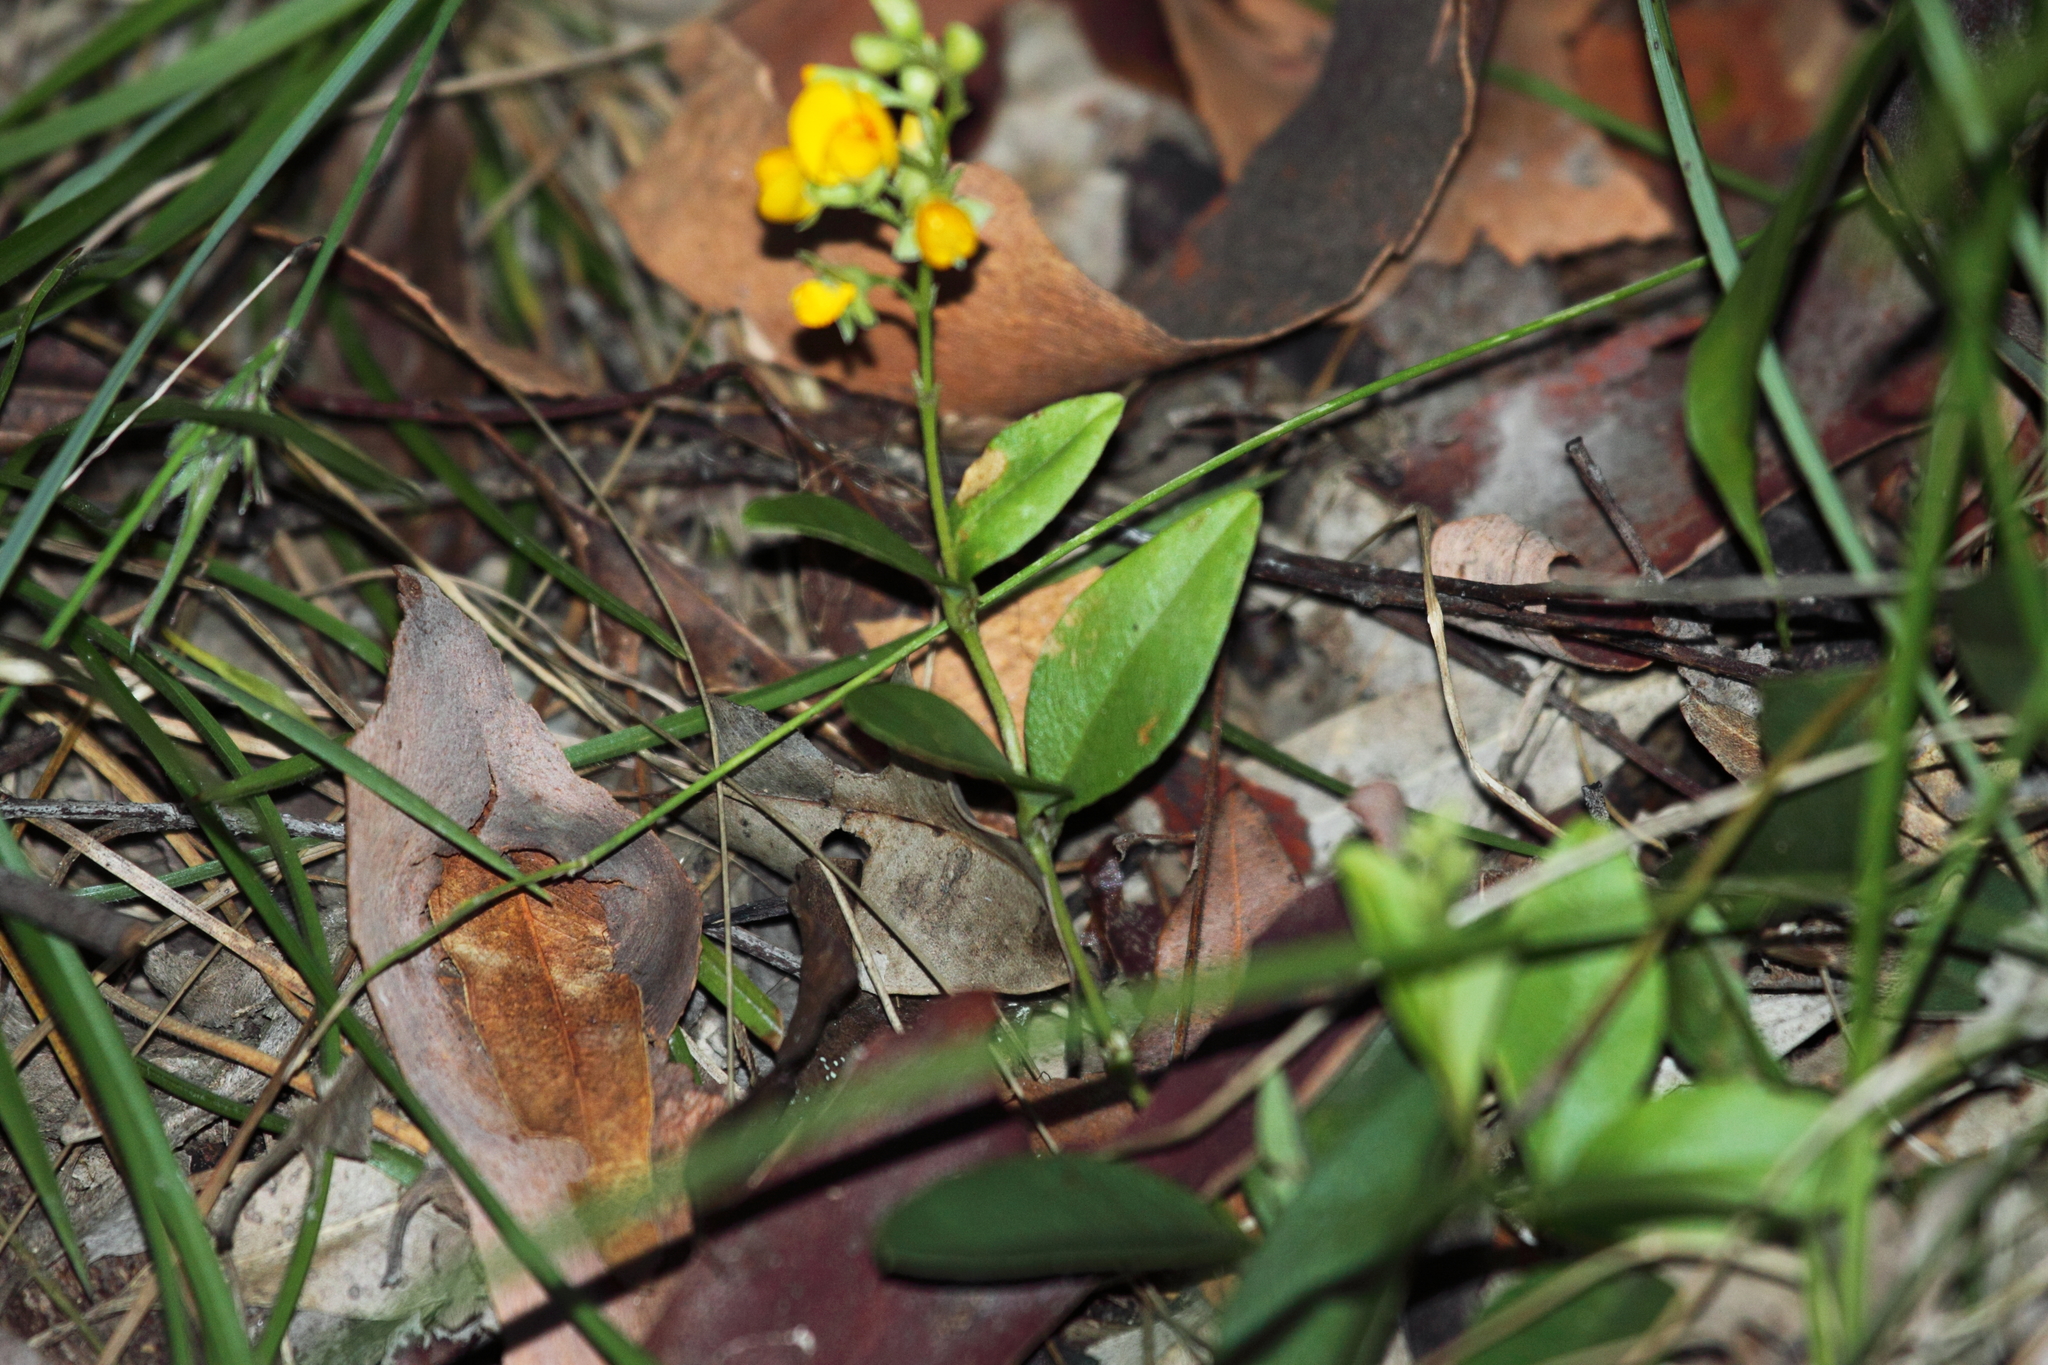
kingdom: Plantae
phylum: Tracheophyta
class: Magnoliopsida
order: Fabales
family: Fabaceae
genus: Podolobium
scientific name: Podolobium scandens
